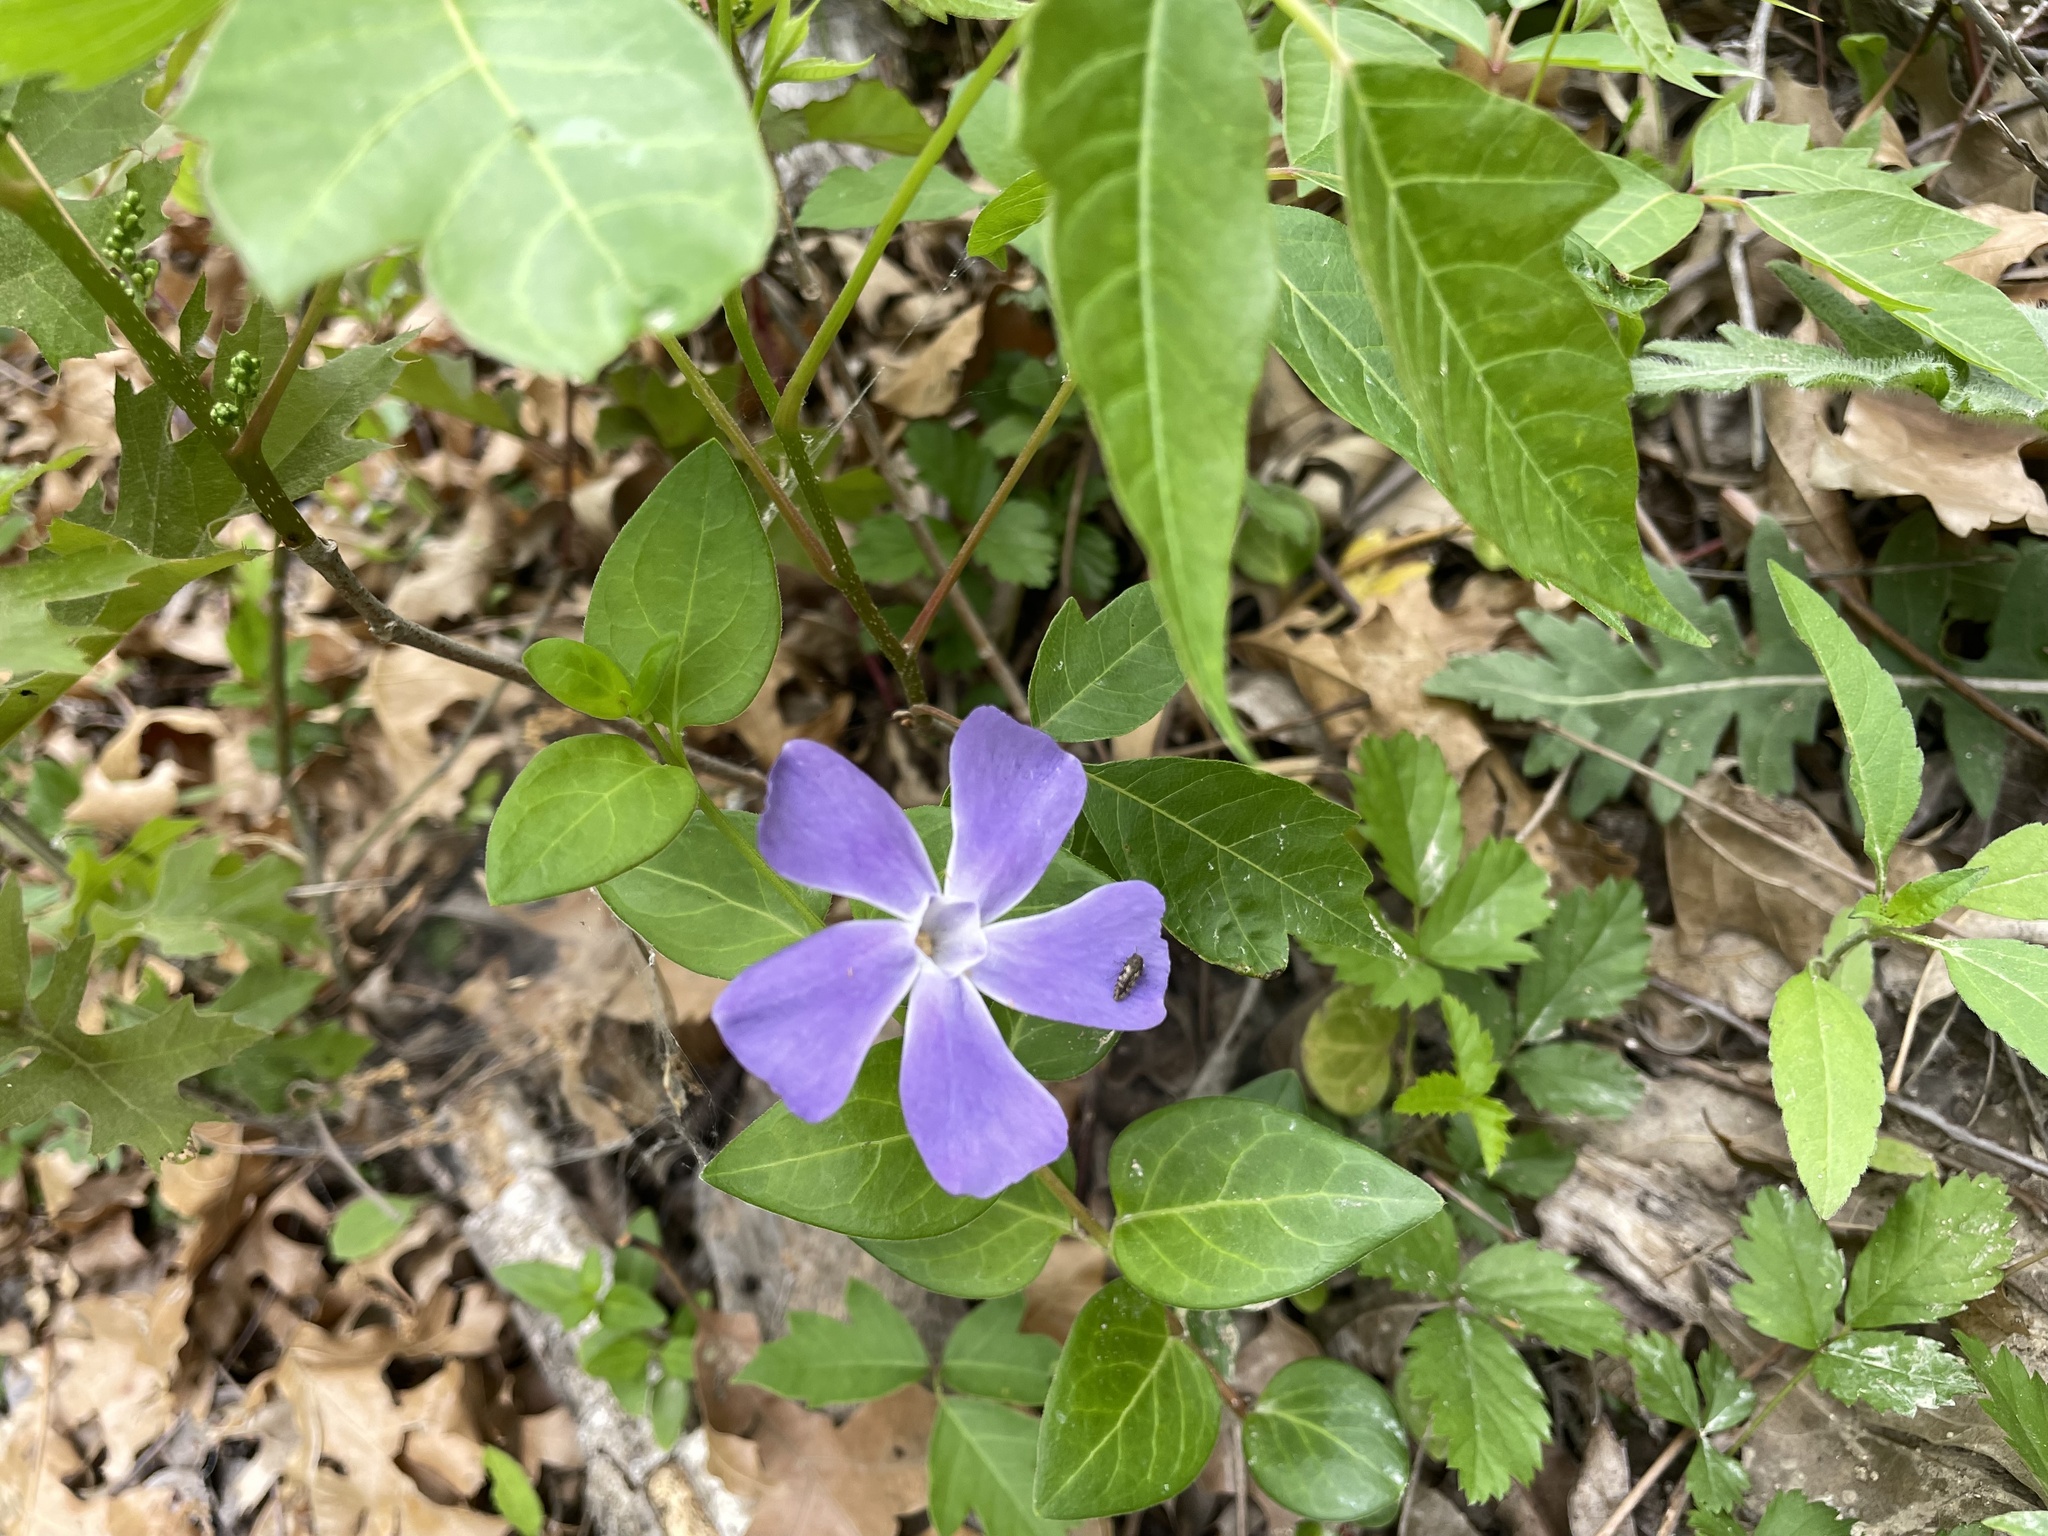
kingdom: Plantae
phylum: Tracheophyta
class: Magnoliopsida
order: Gentianales
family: Apocynaceae
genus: Vinca
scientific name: Vinca major
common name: Greater periwinkle
